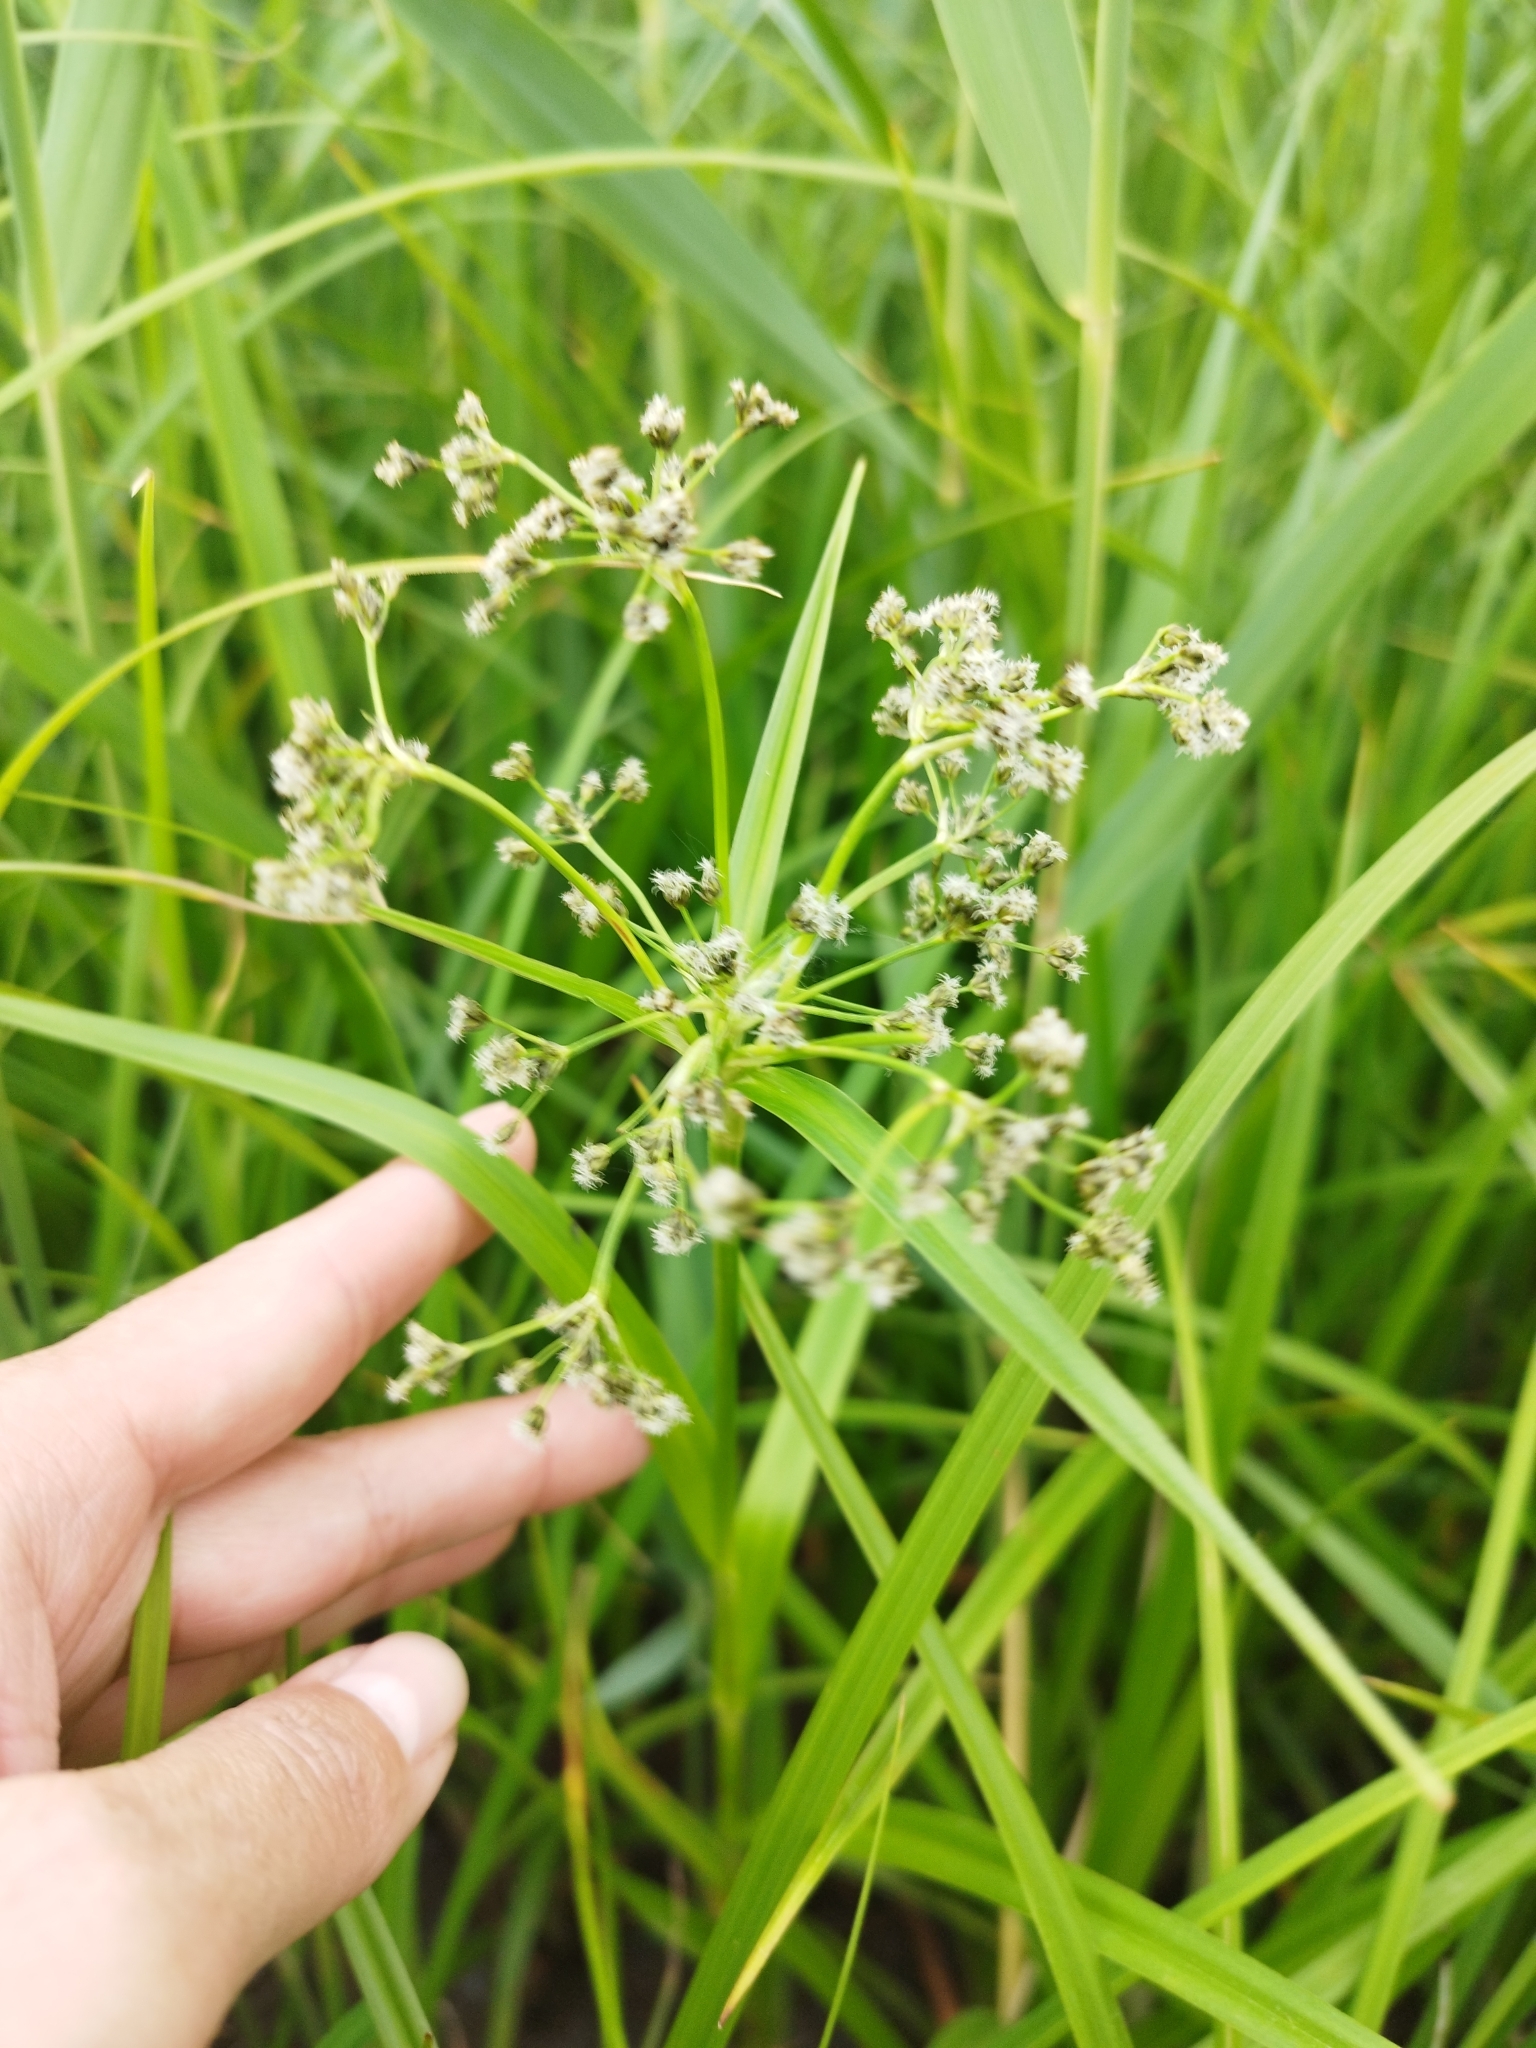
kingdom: Plantae
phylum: Tracheophyta
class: Liliopsida
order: Poales
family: Cyperaceae
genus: Scirpus
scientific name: Scirpus sylvaticus
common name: Wood club-rush
